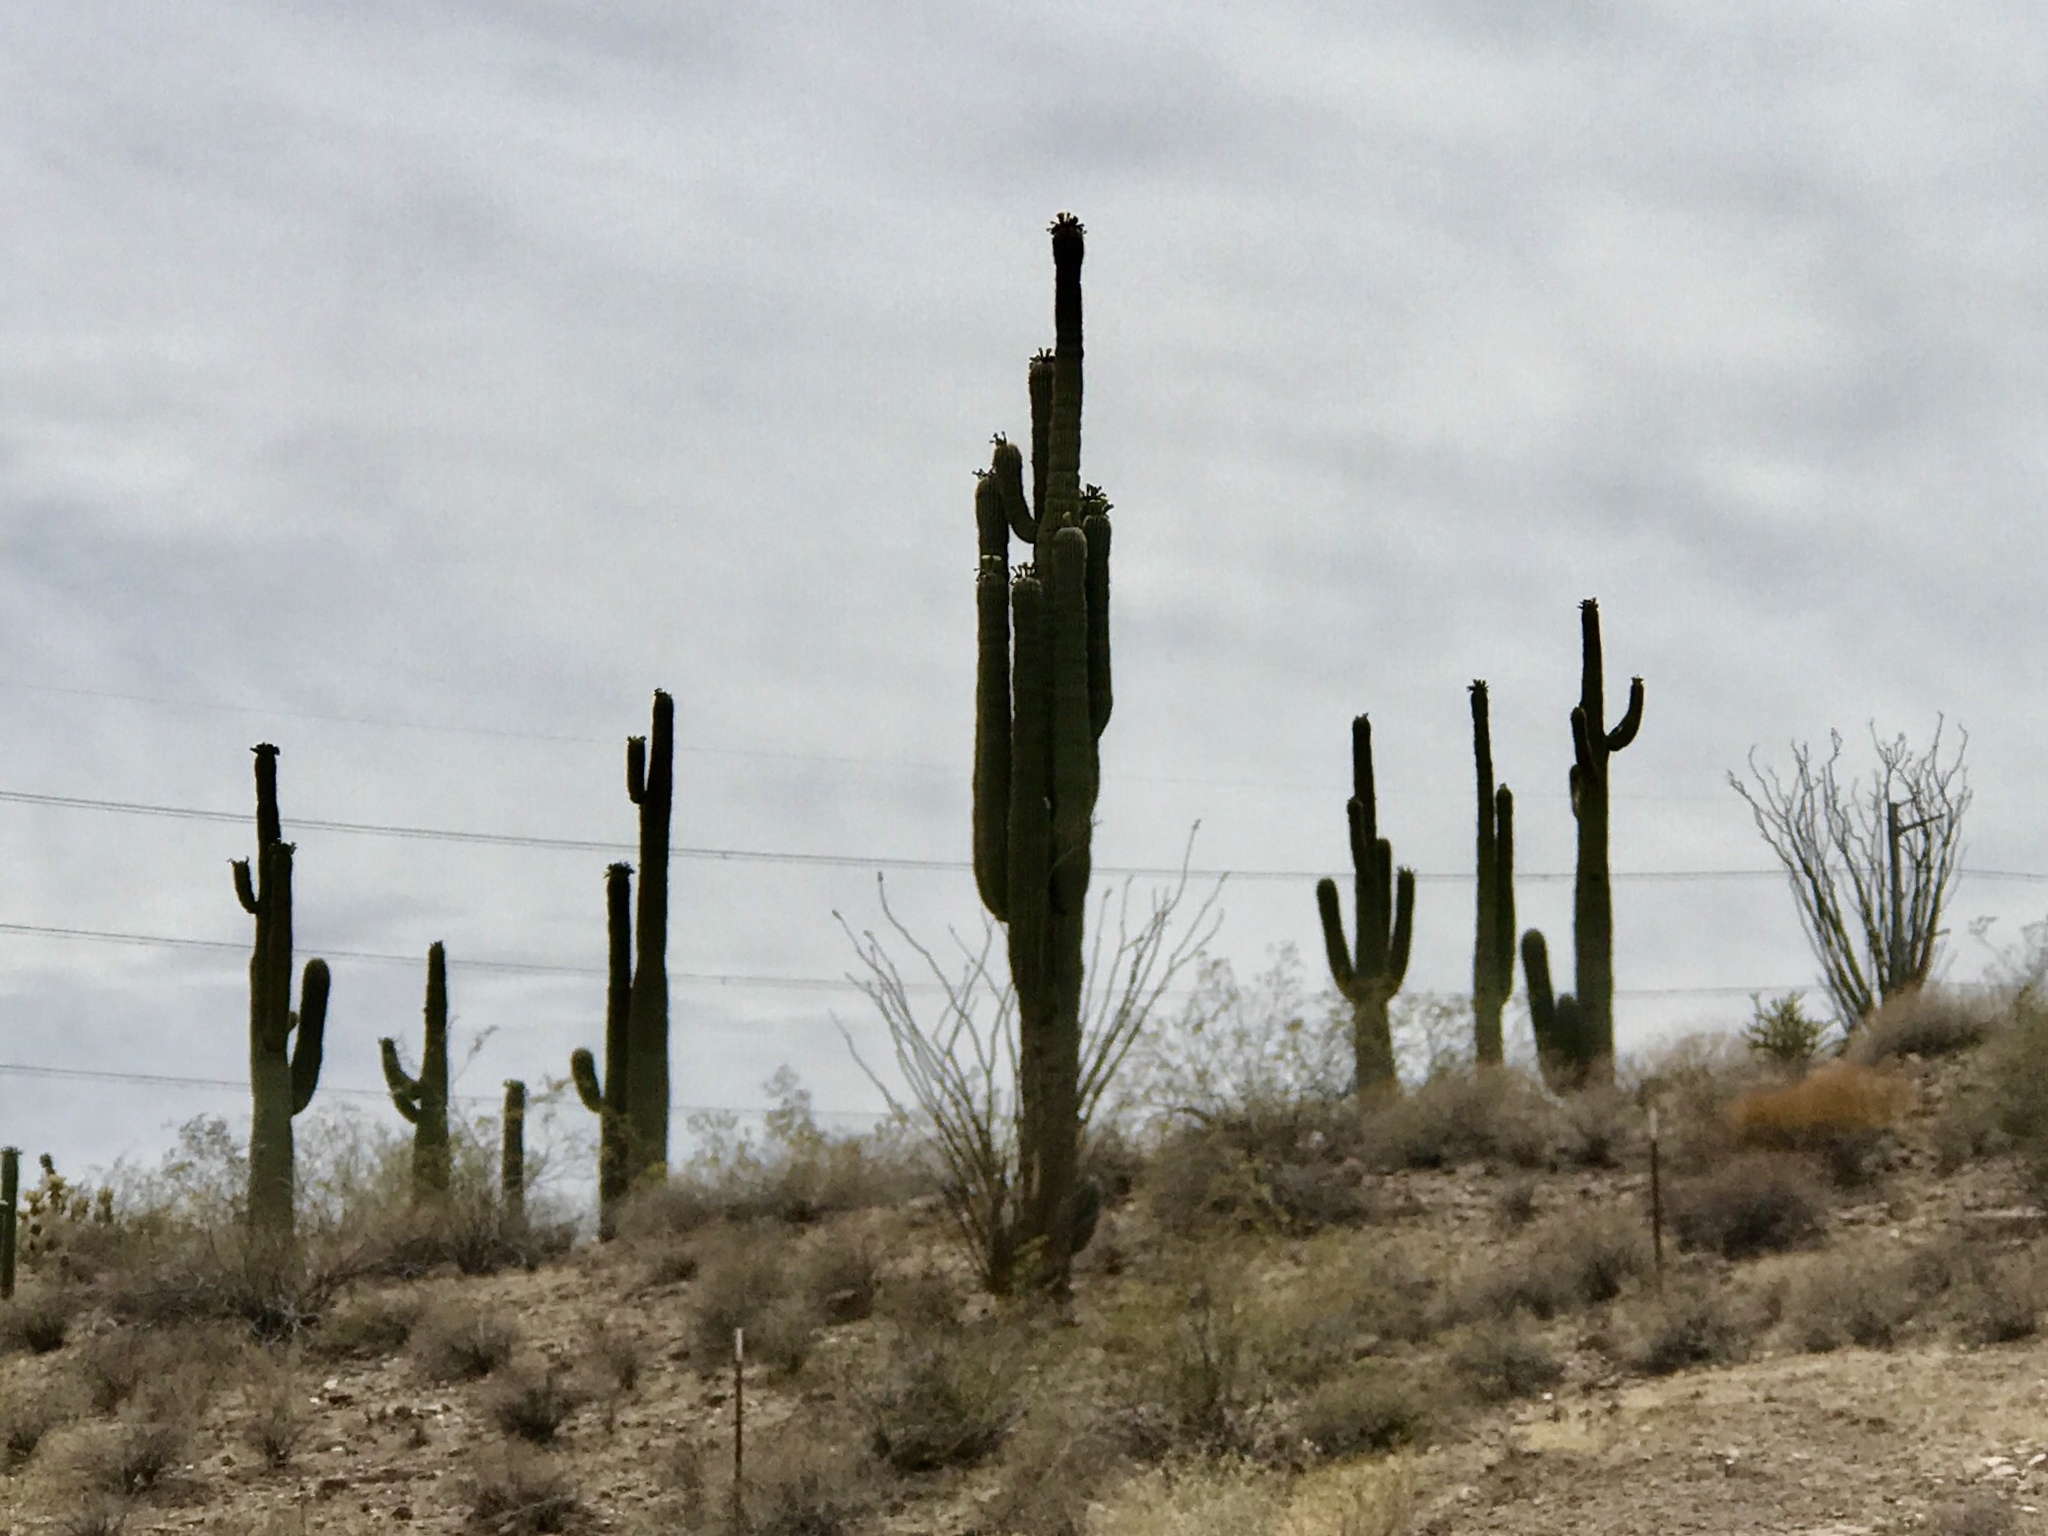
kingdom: Plantae
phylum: Tracheophyta
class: Magnoliopsida
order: Caryophyllales
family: Cactaceae
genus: Carnegiea
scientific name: Carnegiea gigantea
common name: Saguaro
